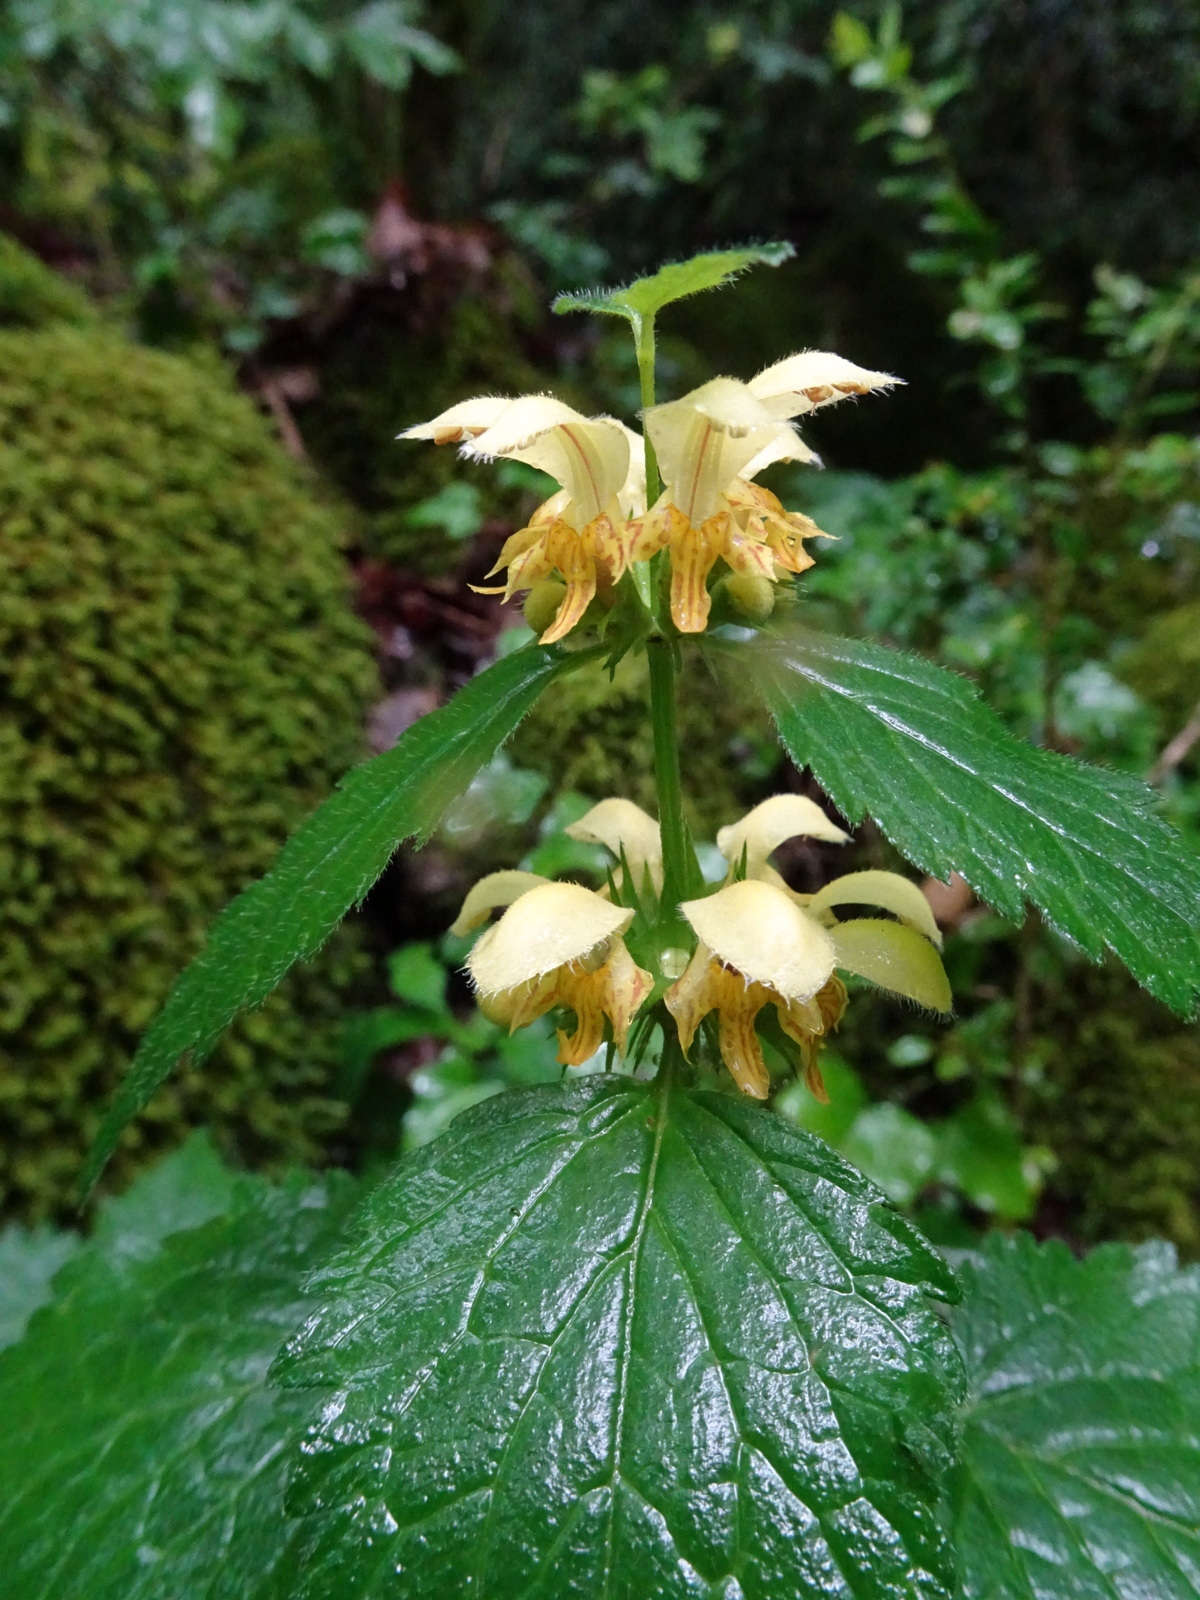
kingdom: Plantae
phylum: Tracheophyta
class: Magnoliopsida
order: Lamiales
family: Lamiaceae
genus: Lamium
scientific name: Lamium galeobdolon
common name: Yellow archangel
